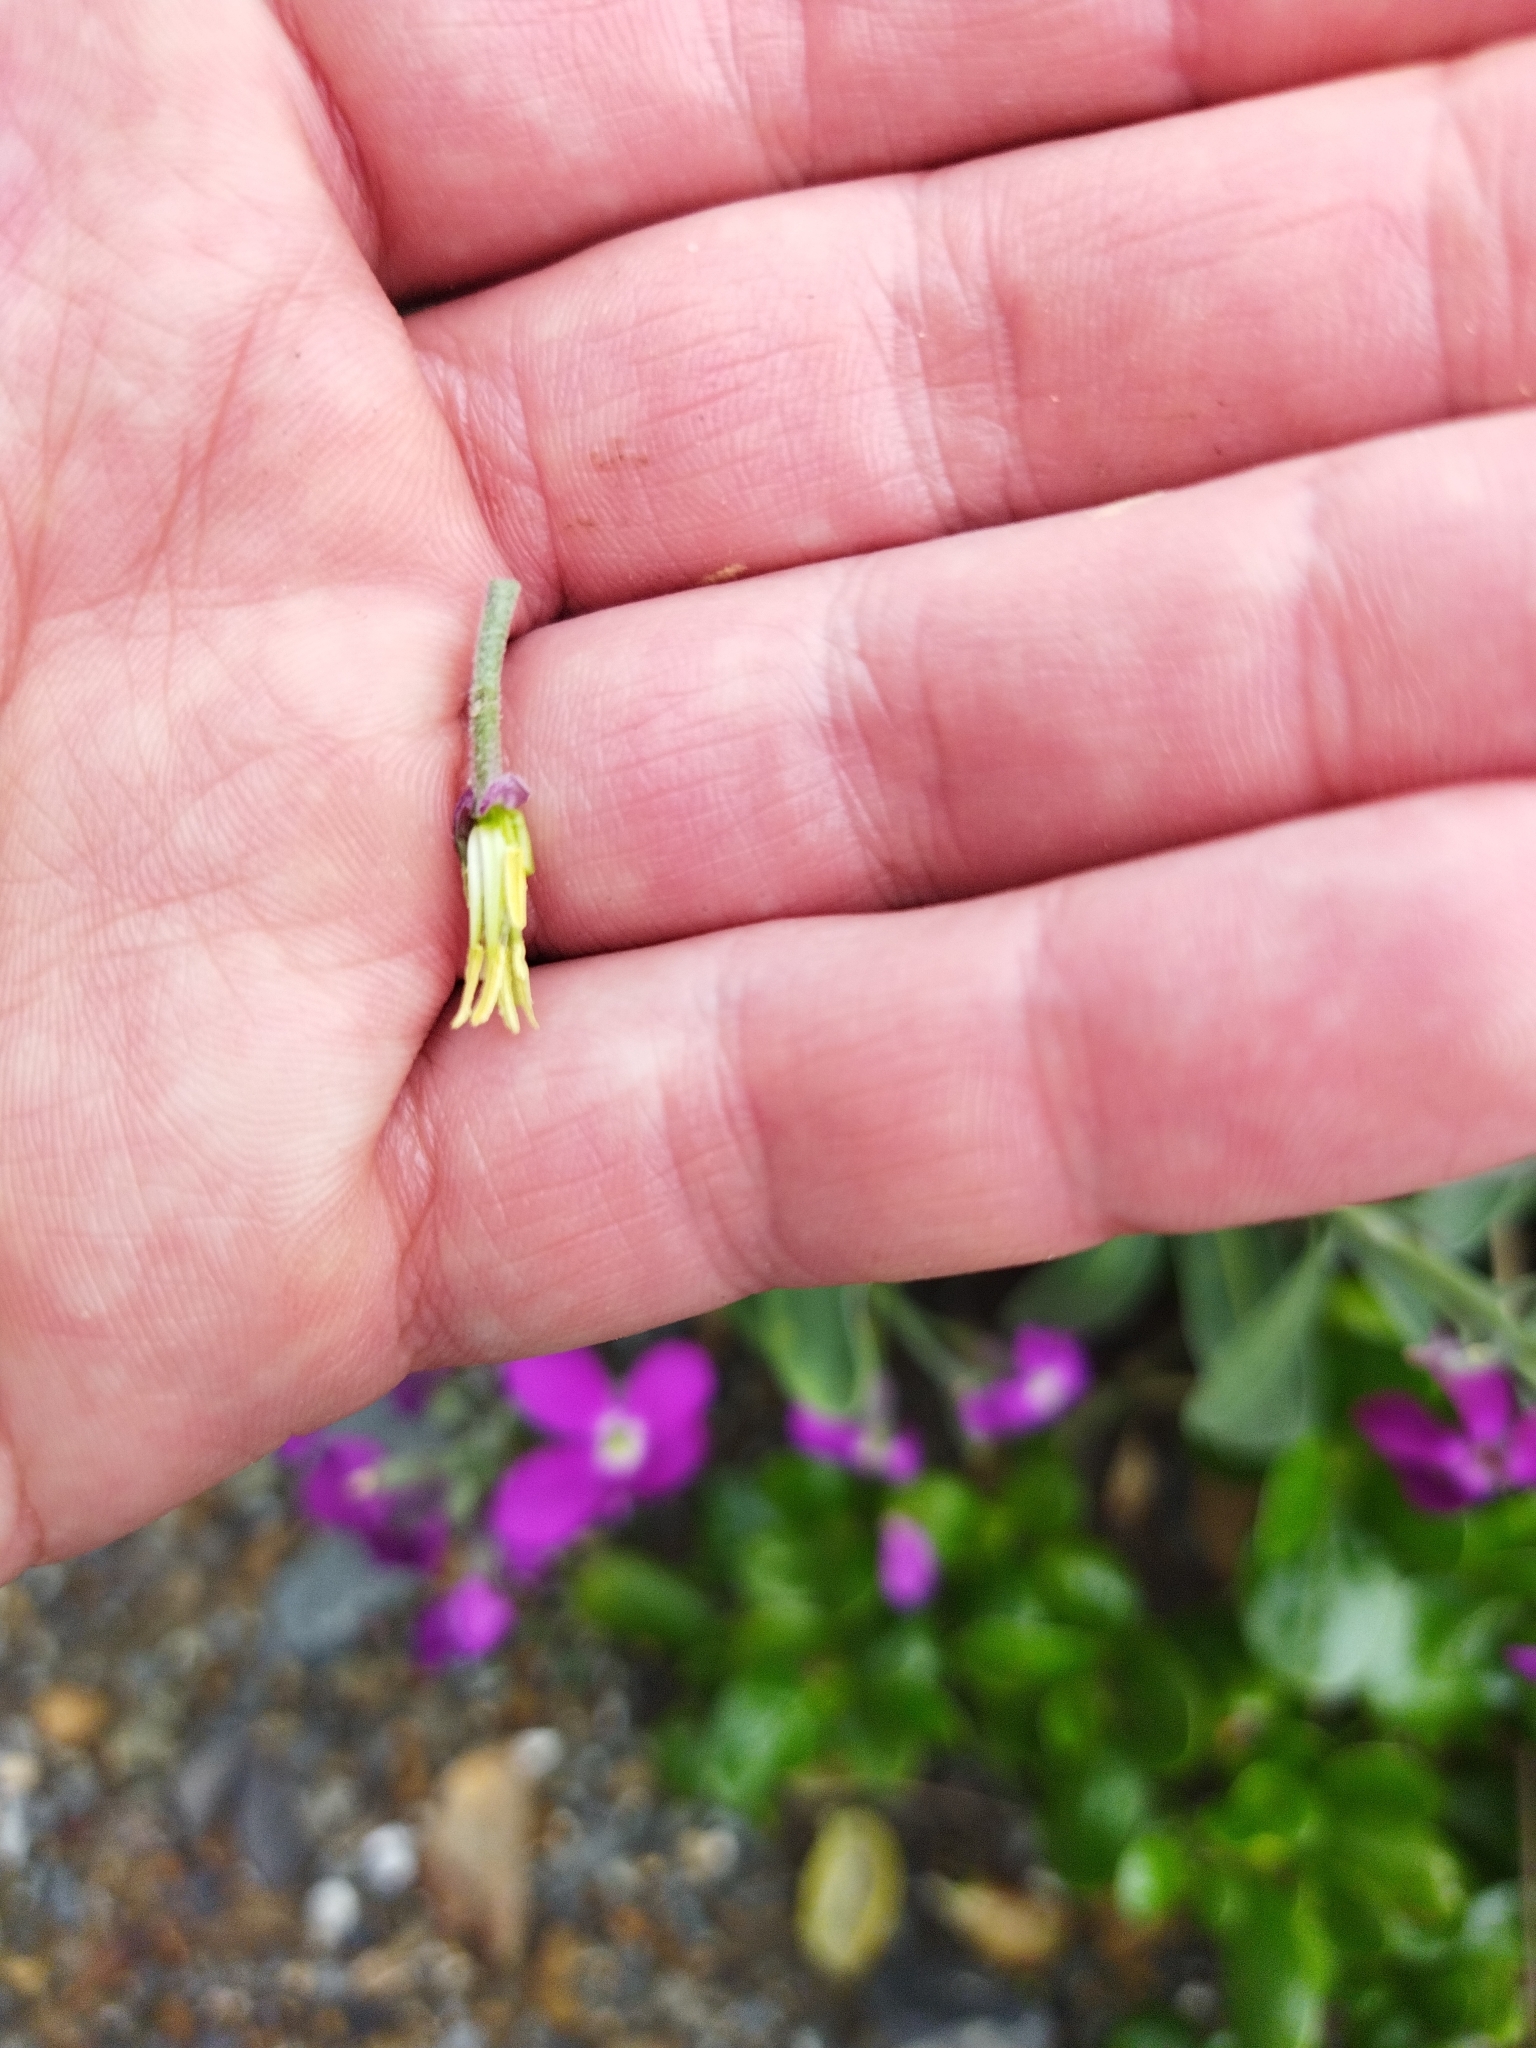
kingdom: Plantae
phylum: Tracheophyta
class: Magnoliopsida
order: Brassicales
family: Brassicaceae
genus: Matthiola
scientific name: Matthiola incana
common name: Hoary stock
